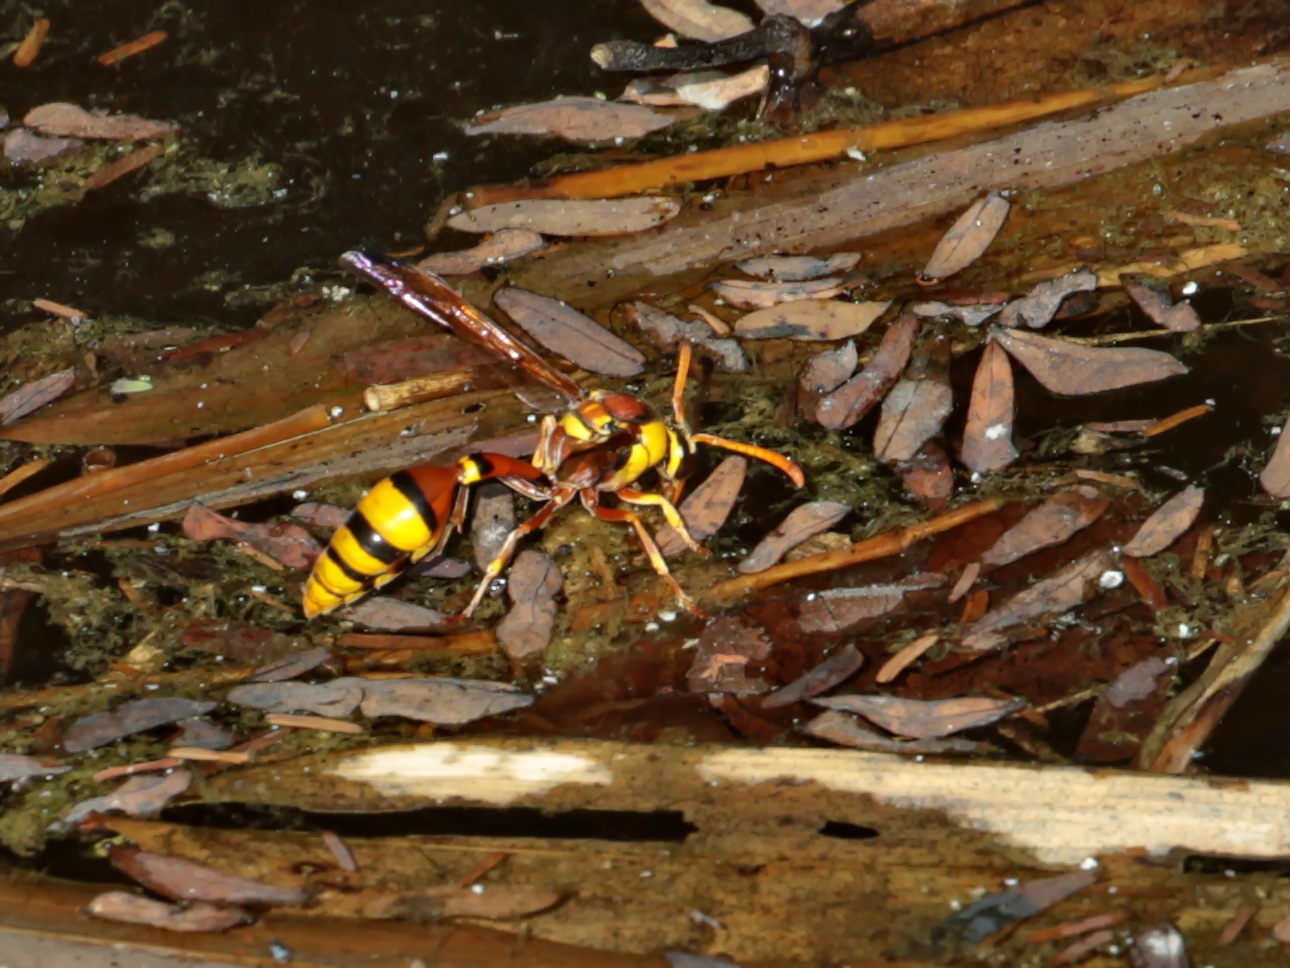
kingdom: Animalia
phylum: Arthropoda
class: Insecta
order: Hymenoptera
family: Eumenidae
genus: Delta
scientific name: Delta esuriens
